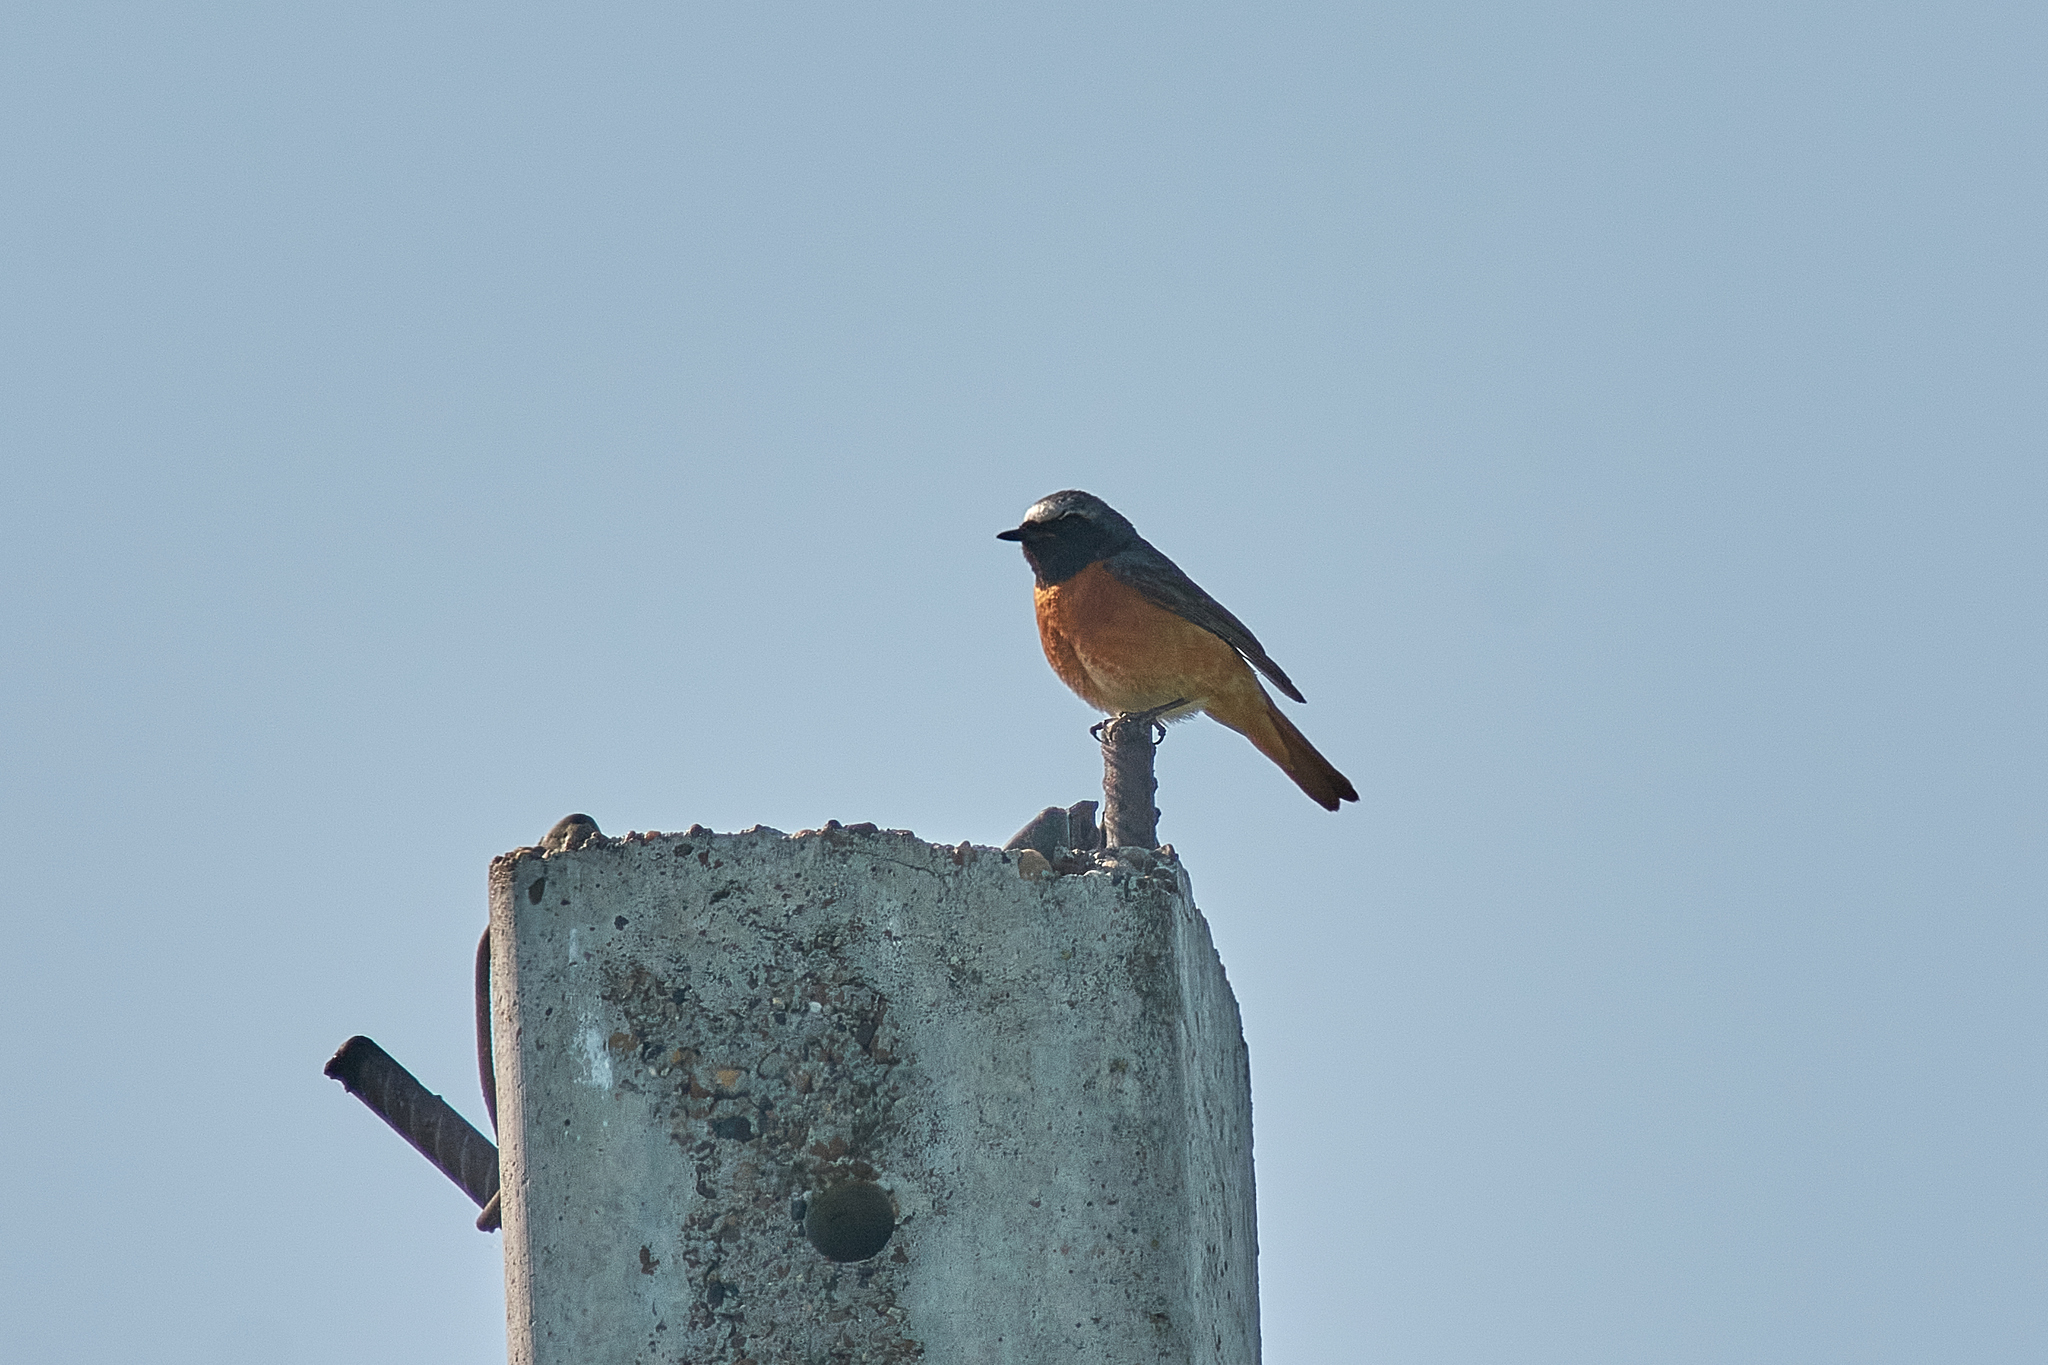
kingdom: Animalia
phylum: Chordata
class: Aves
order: Passeriformes
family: Muscicapidae
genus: Phoenicurus
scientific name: Phoenicurus phoenicurus
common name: Common redstart
